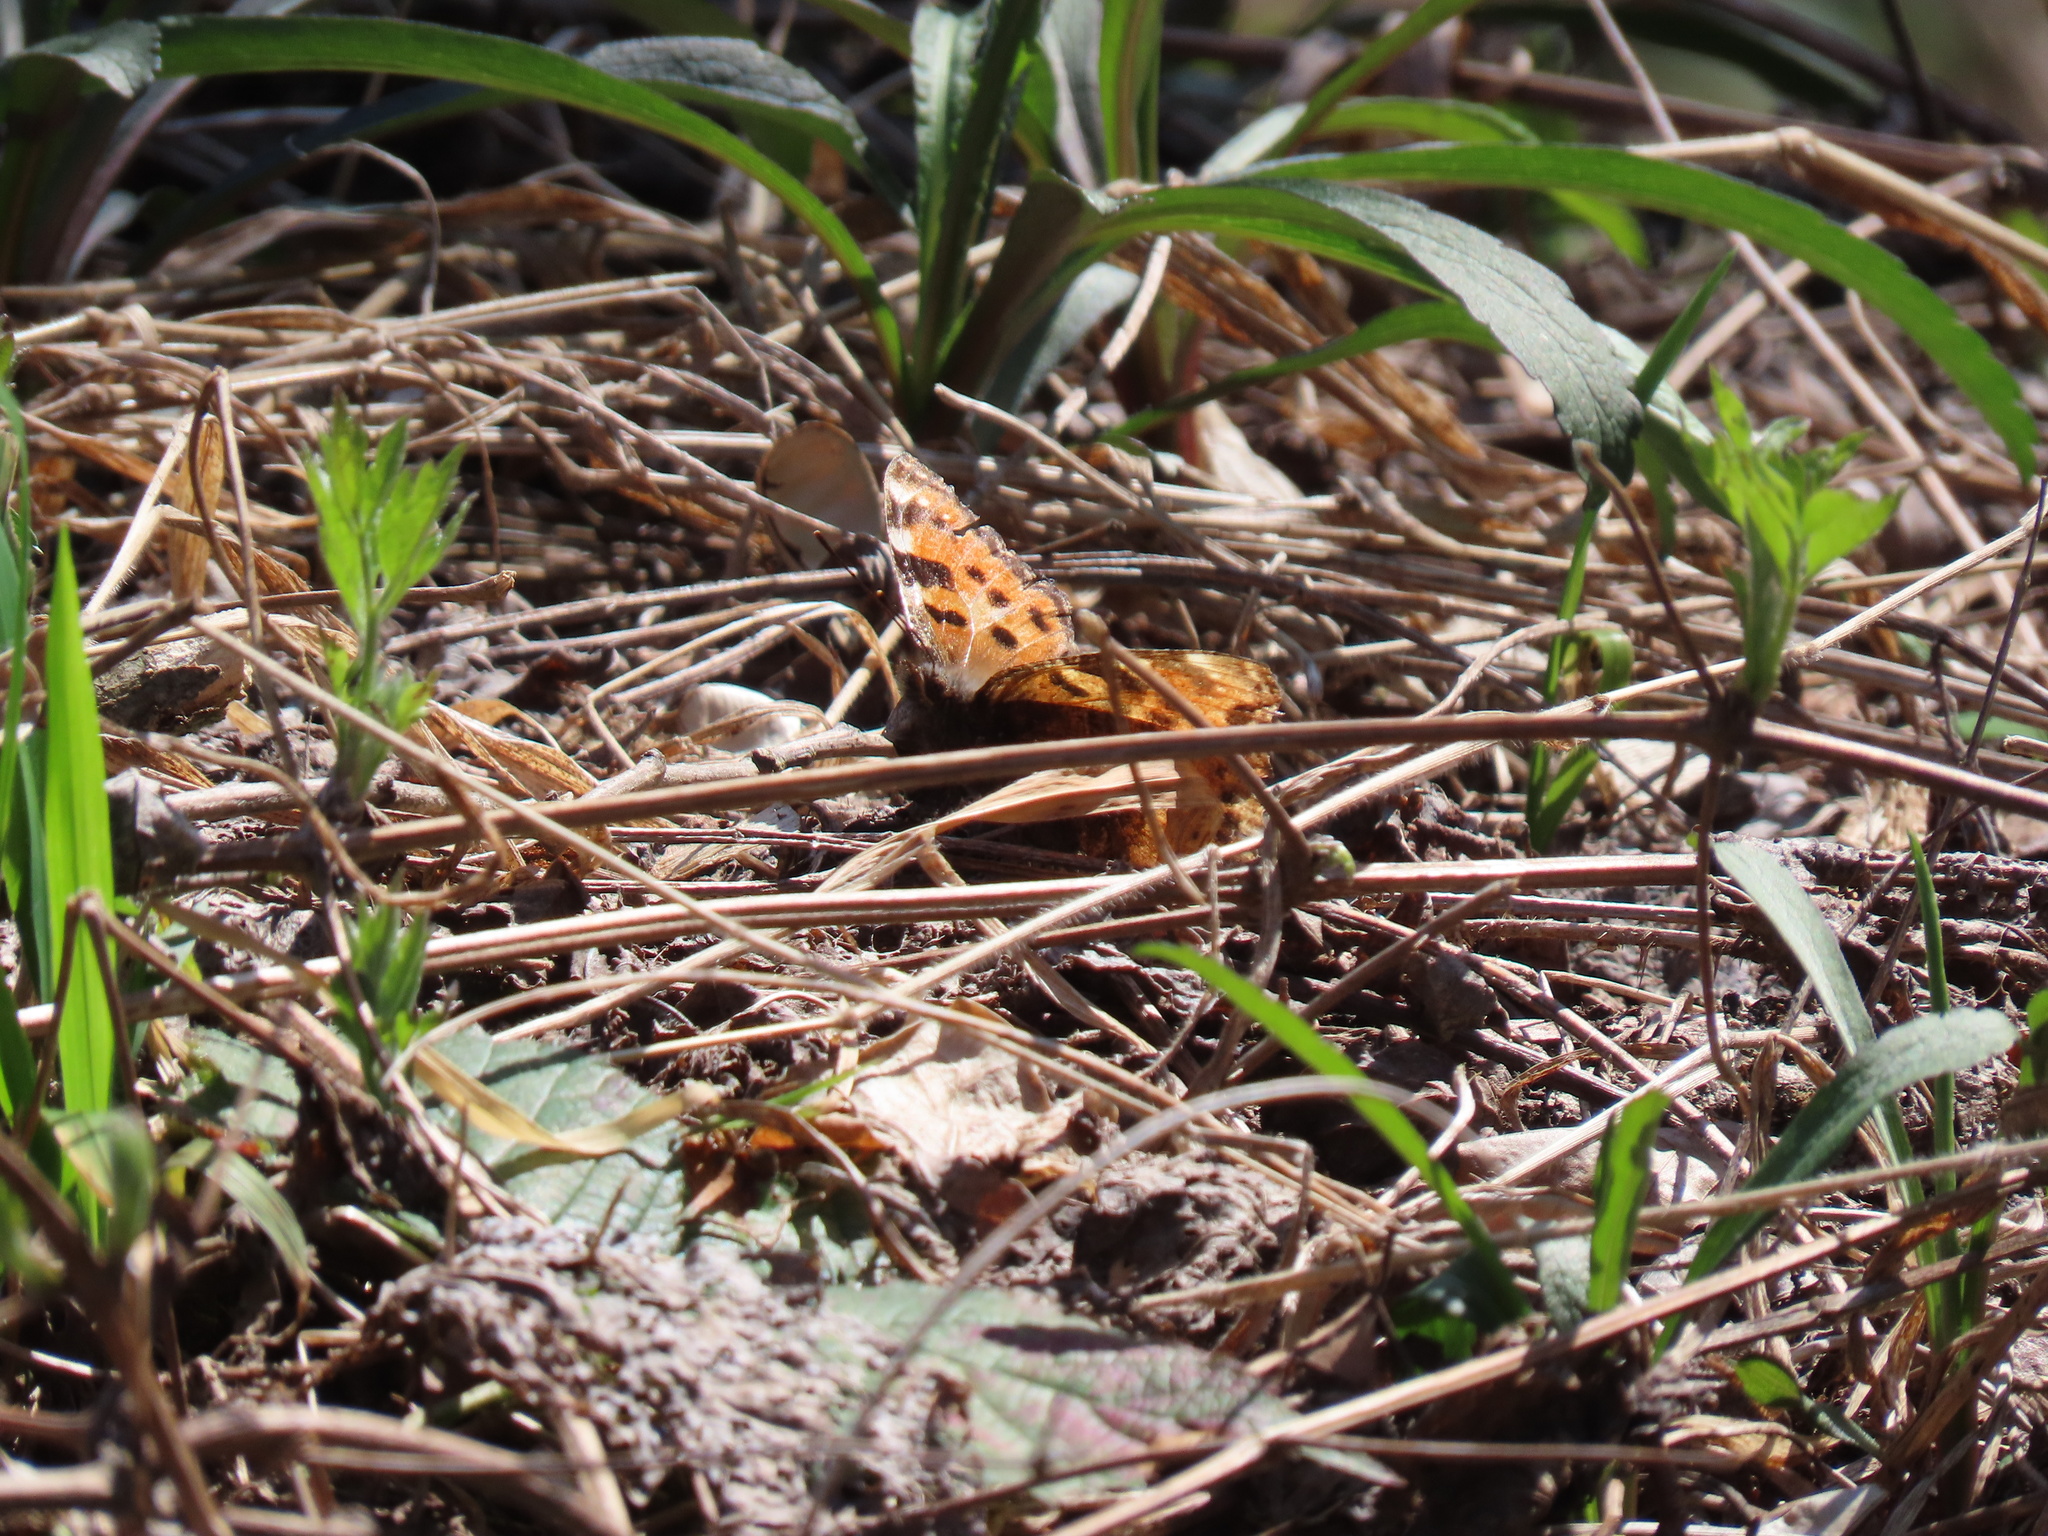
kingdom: Animalia
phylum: Arthropoda
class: Insecta
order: Lepidoptera
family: Nymphalidae
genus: Nymphalis
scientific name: Nymphalis polychloros
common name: Large tortoiseshell
